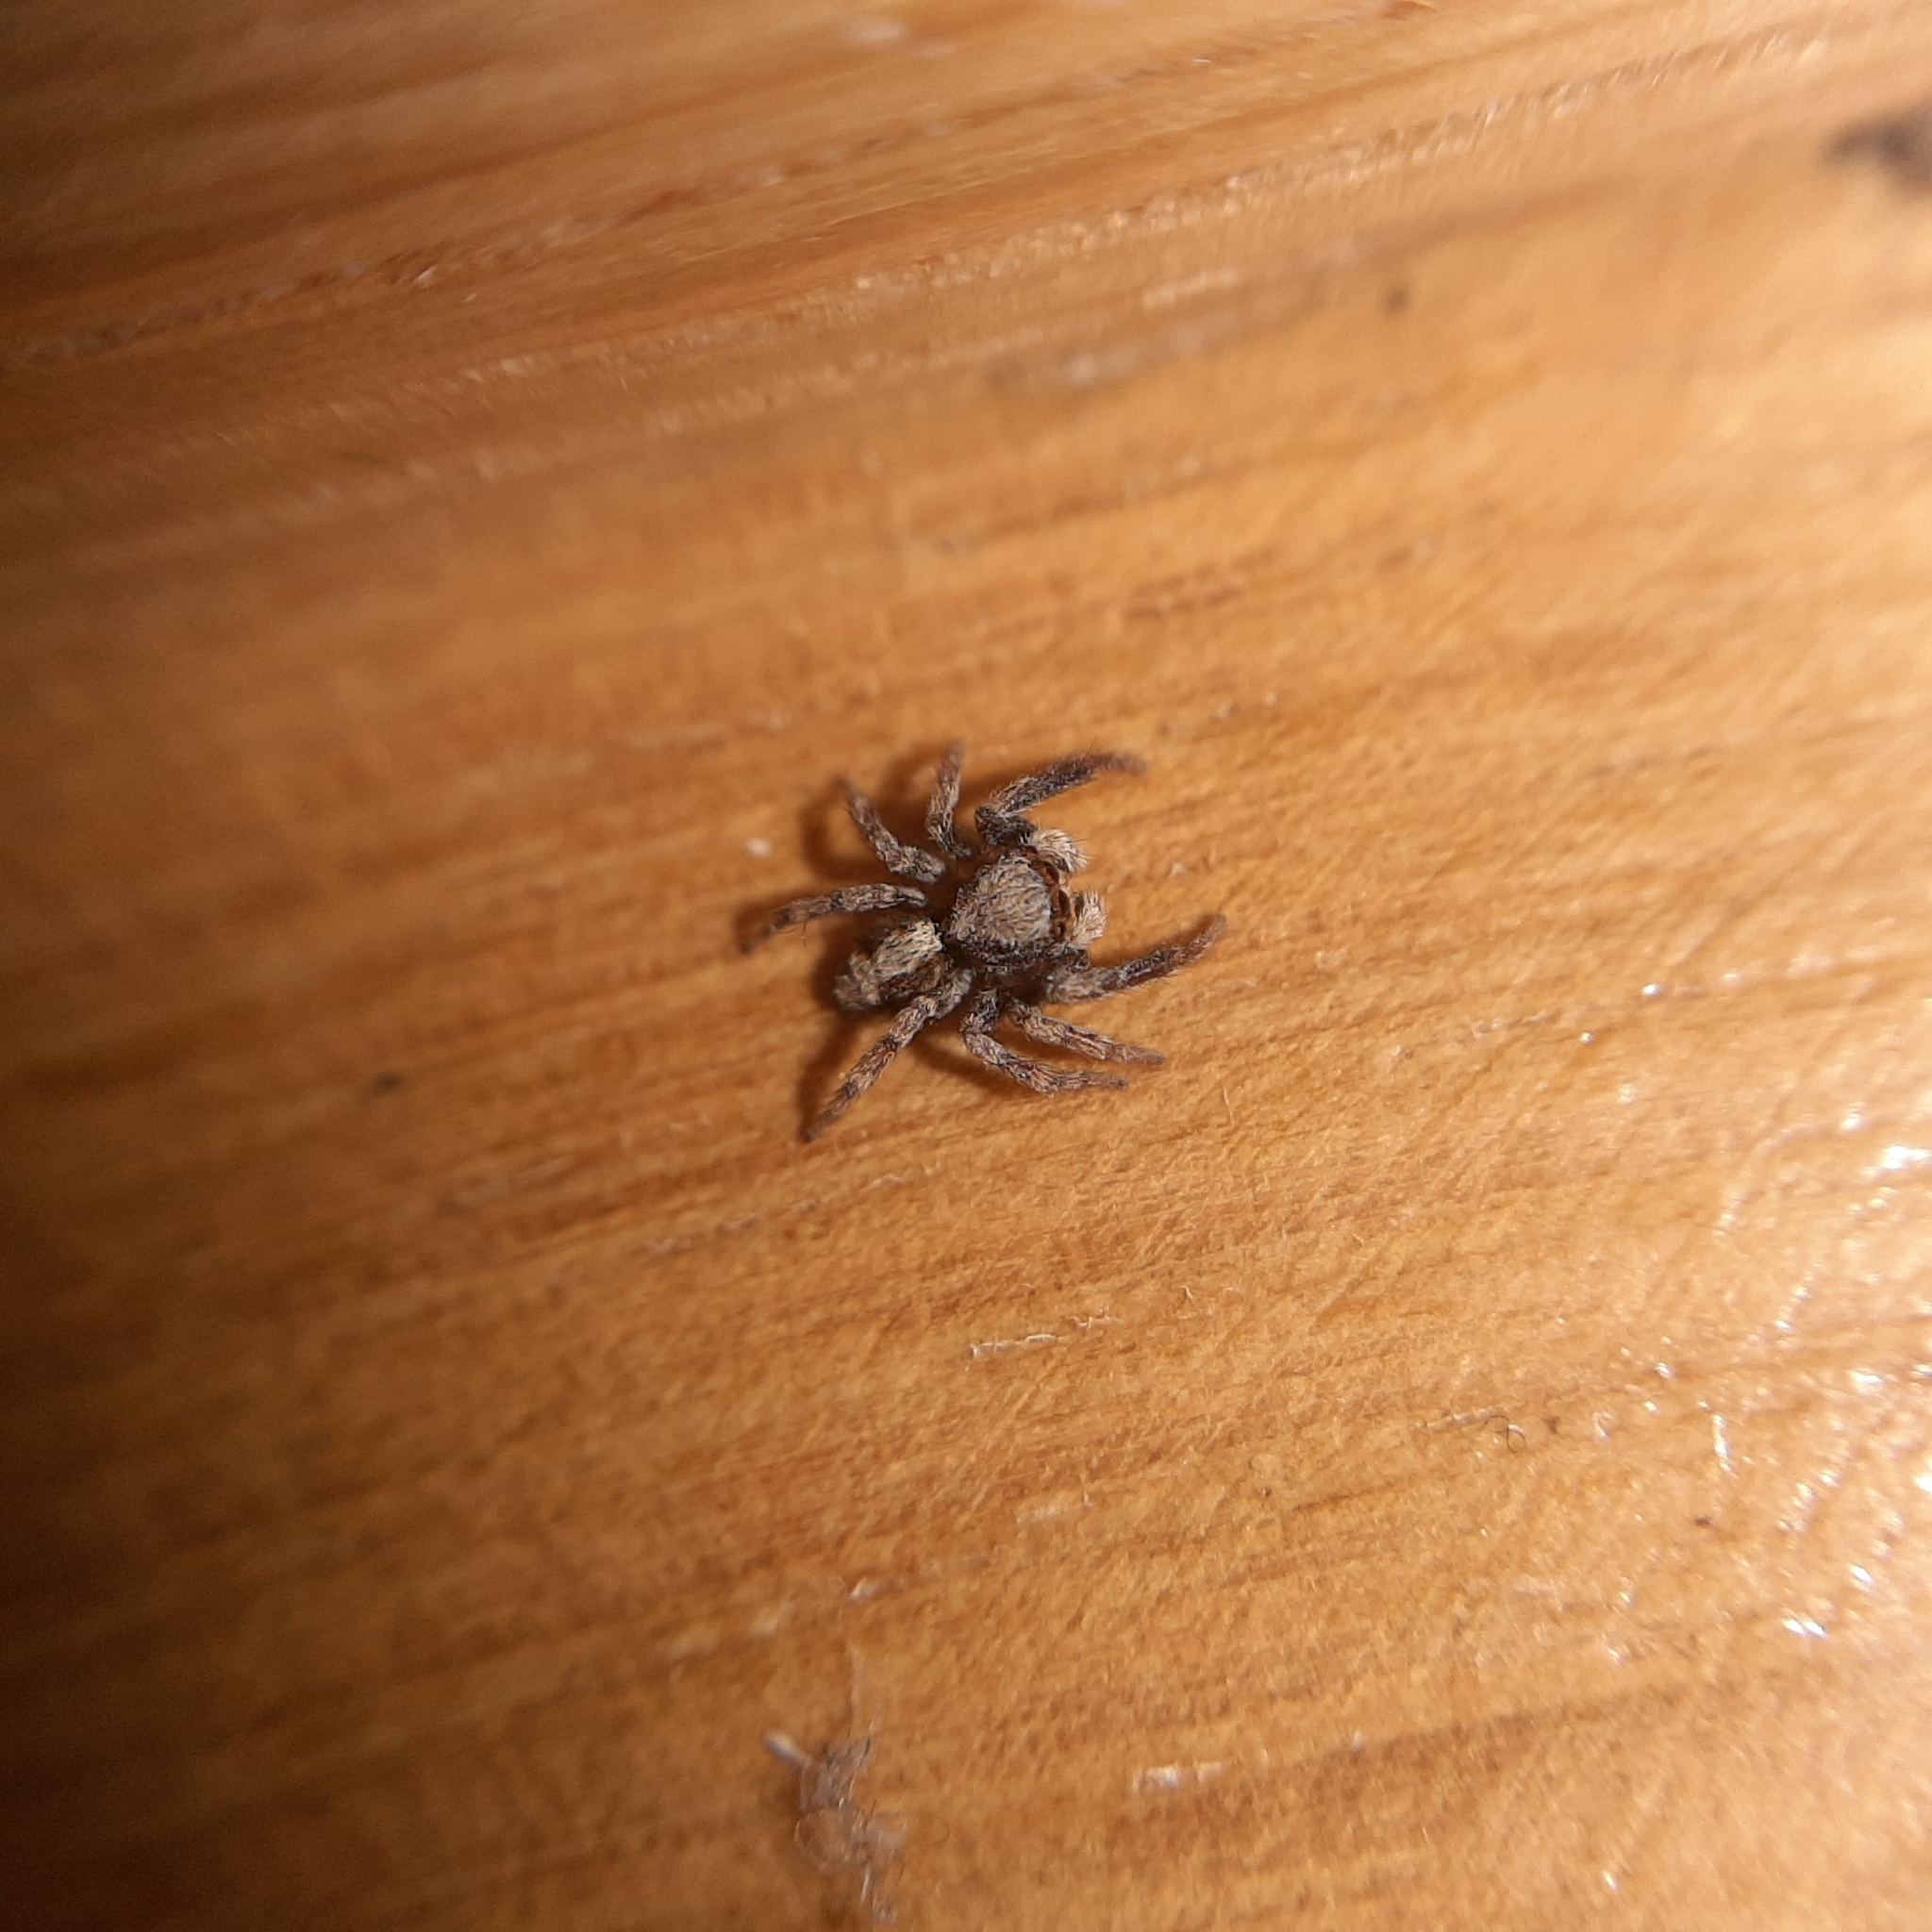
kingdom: Animalia
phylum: Arthropoda
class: Arachnida
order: Araneae
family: Salticidae
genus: Pseudeuophrys
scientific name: Pseudeuophrys
